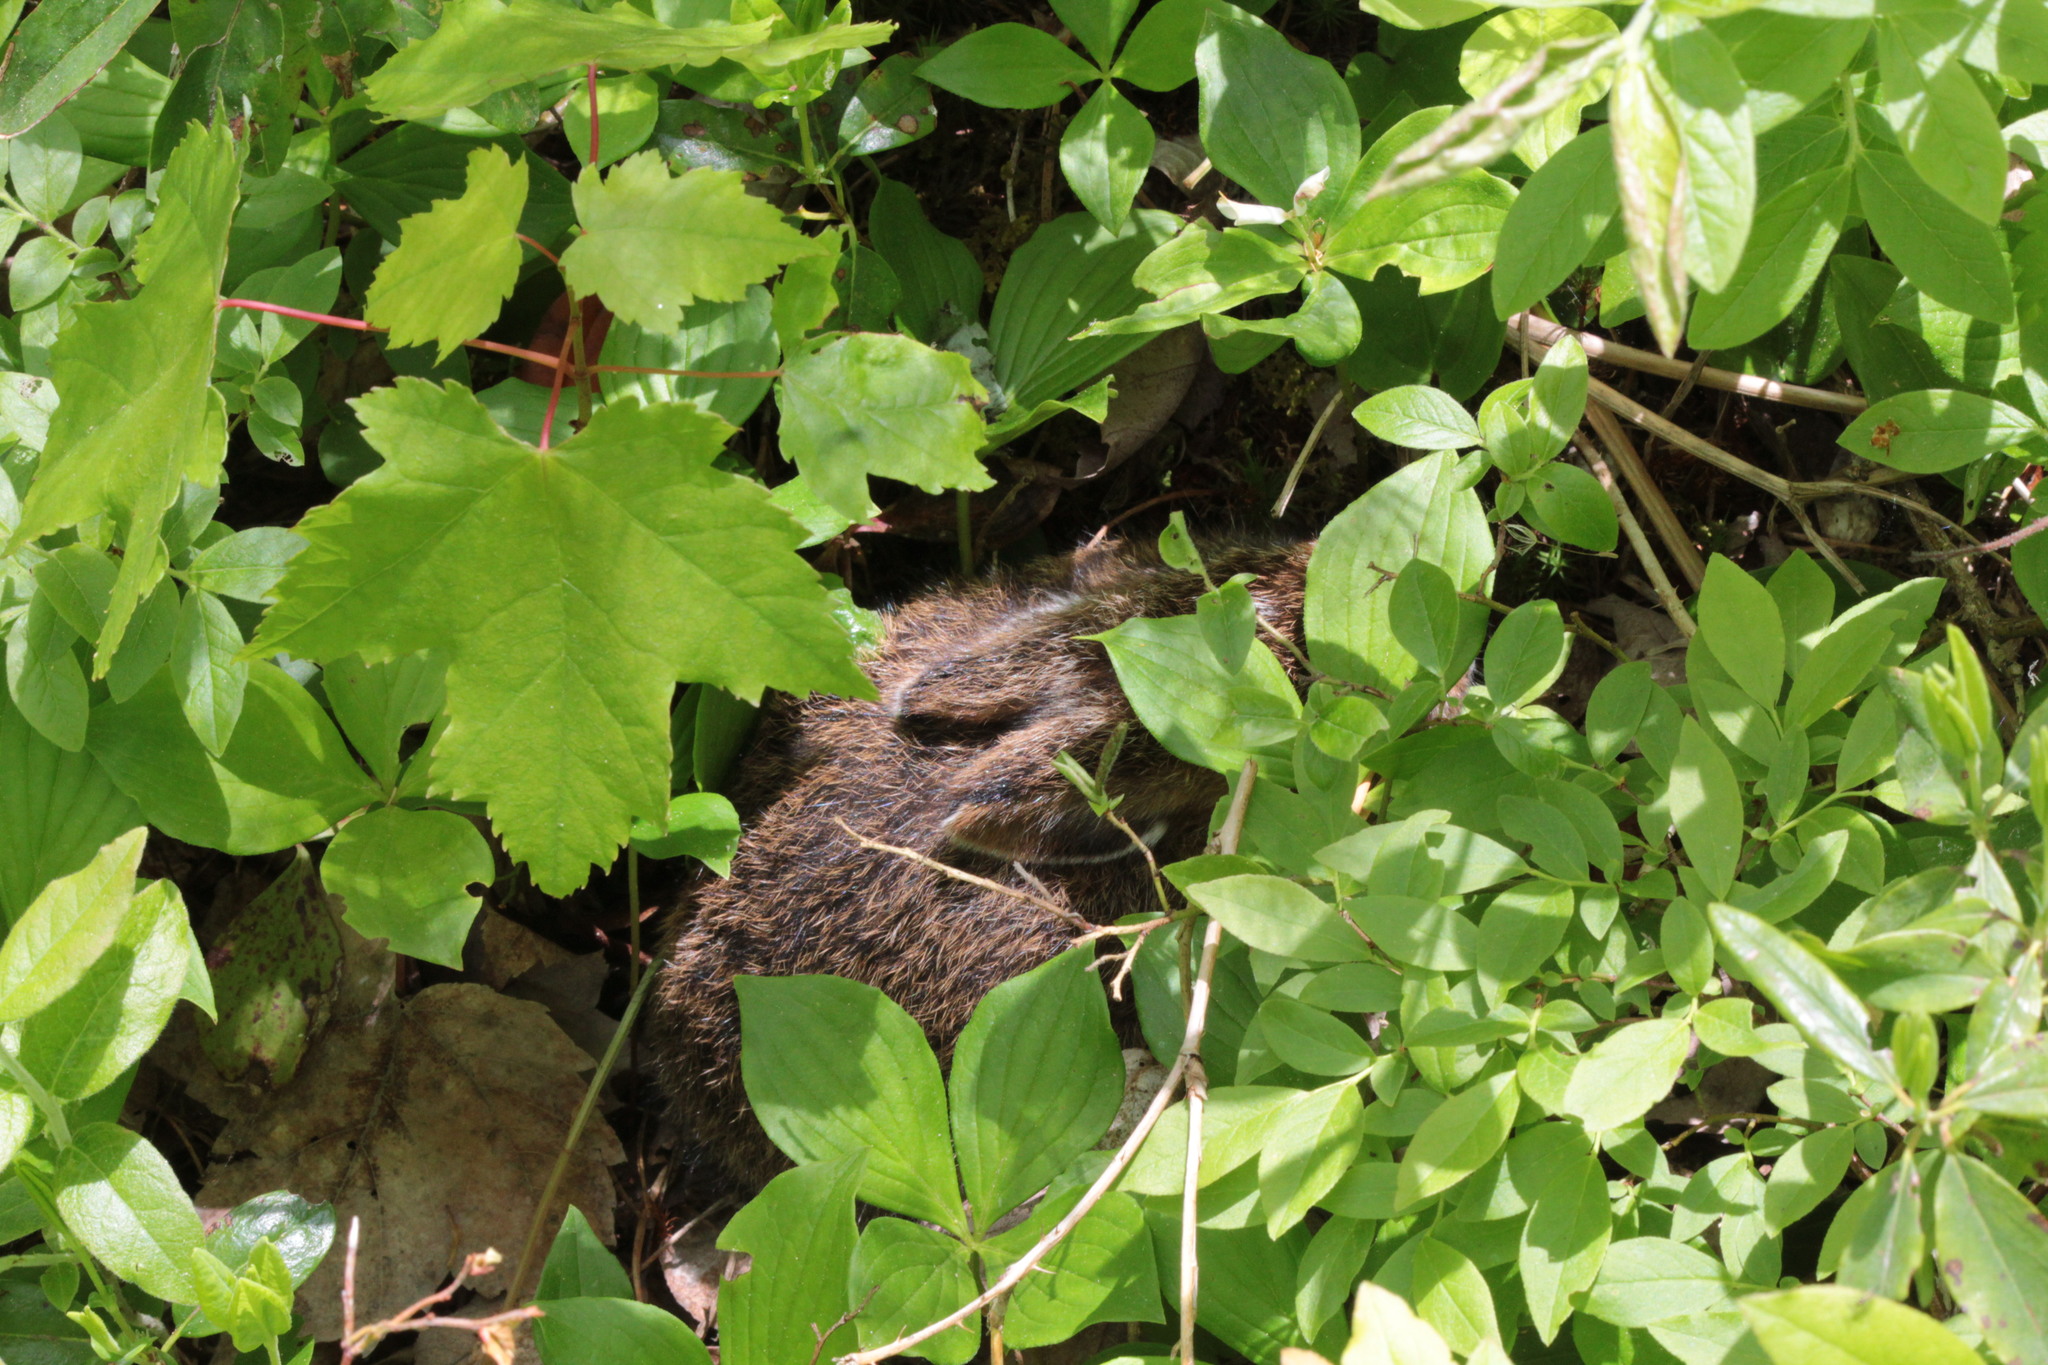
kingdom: Animalia
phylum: Chordata
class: Mammalia
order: Lagomorpha
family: Leporidae
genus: Lepus
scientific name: Lepus americanus
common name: Snowshoe hare
